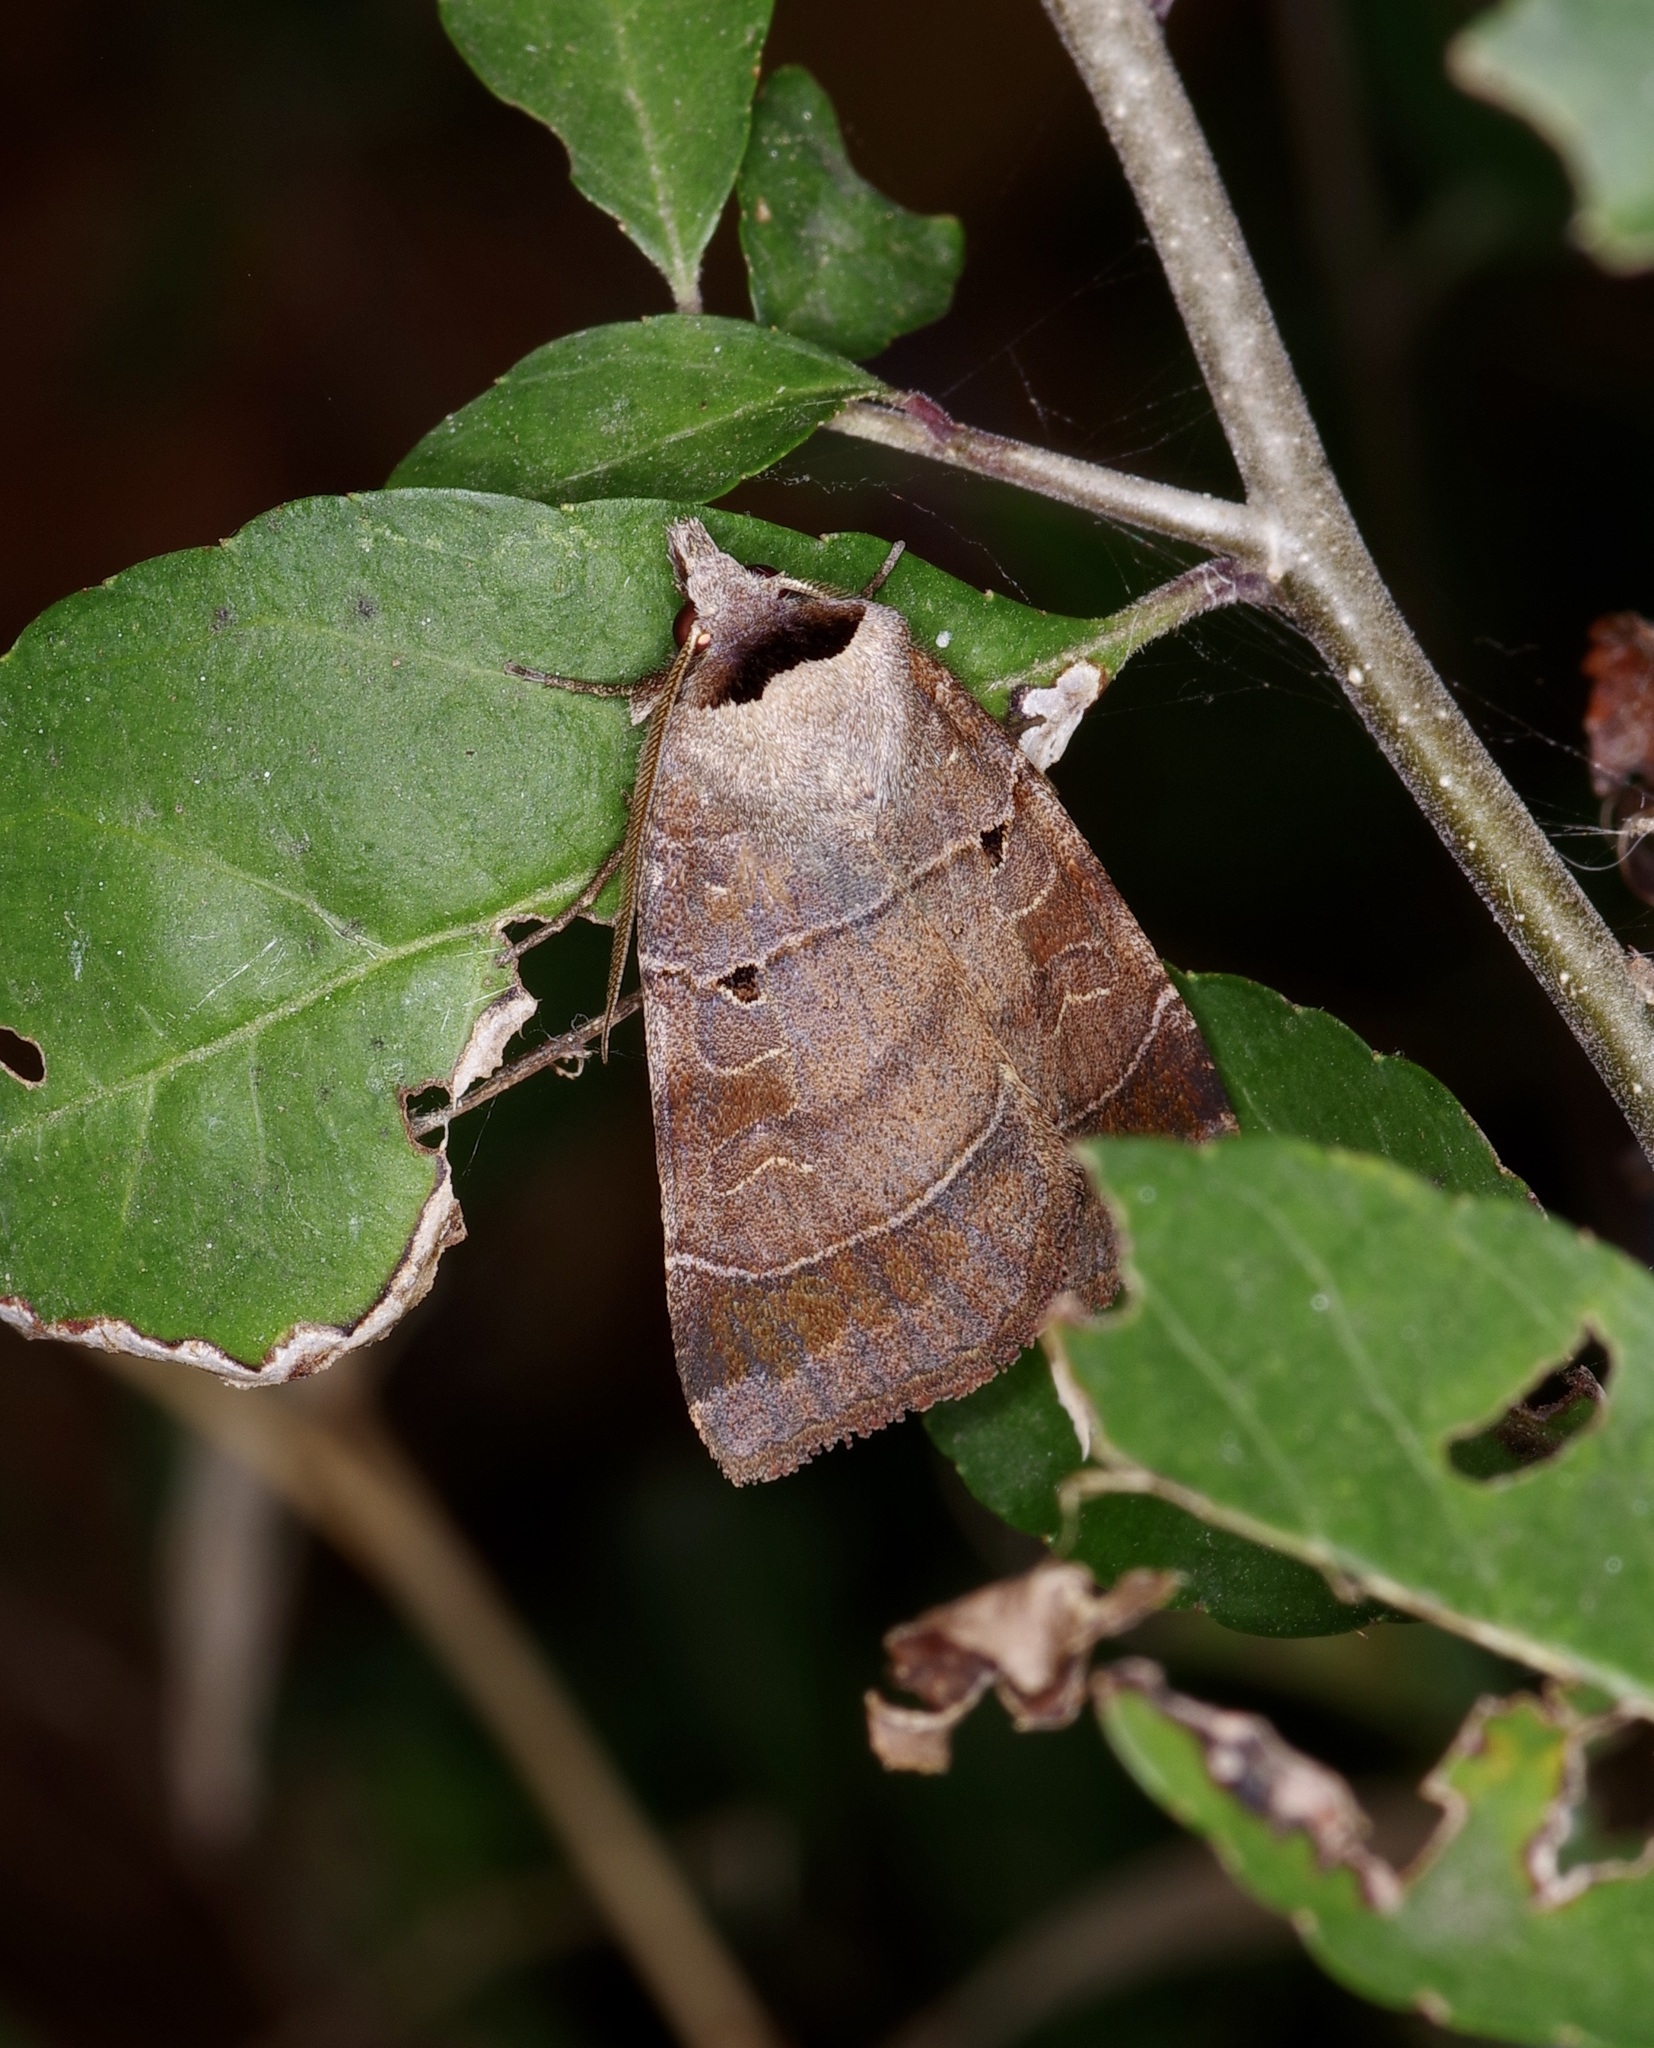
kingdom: Animalia
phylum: Arthropoda
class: Insecta
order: Lepidoptera
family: Noctuidae
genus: Agnorisma
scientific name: Agnorisma badinodis
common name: Pale-banded dart
